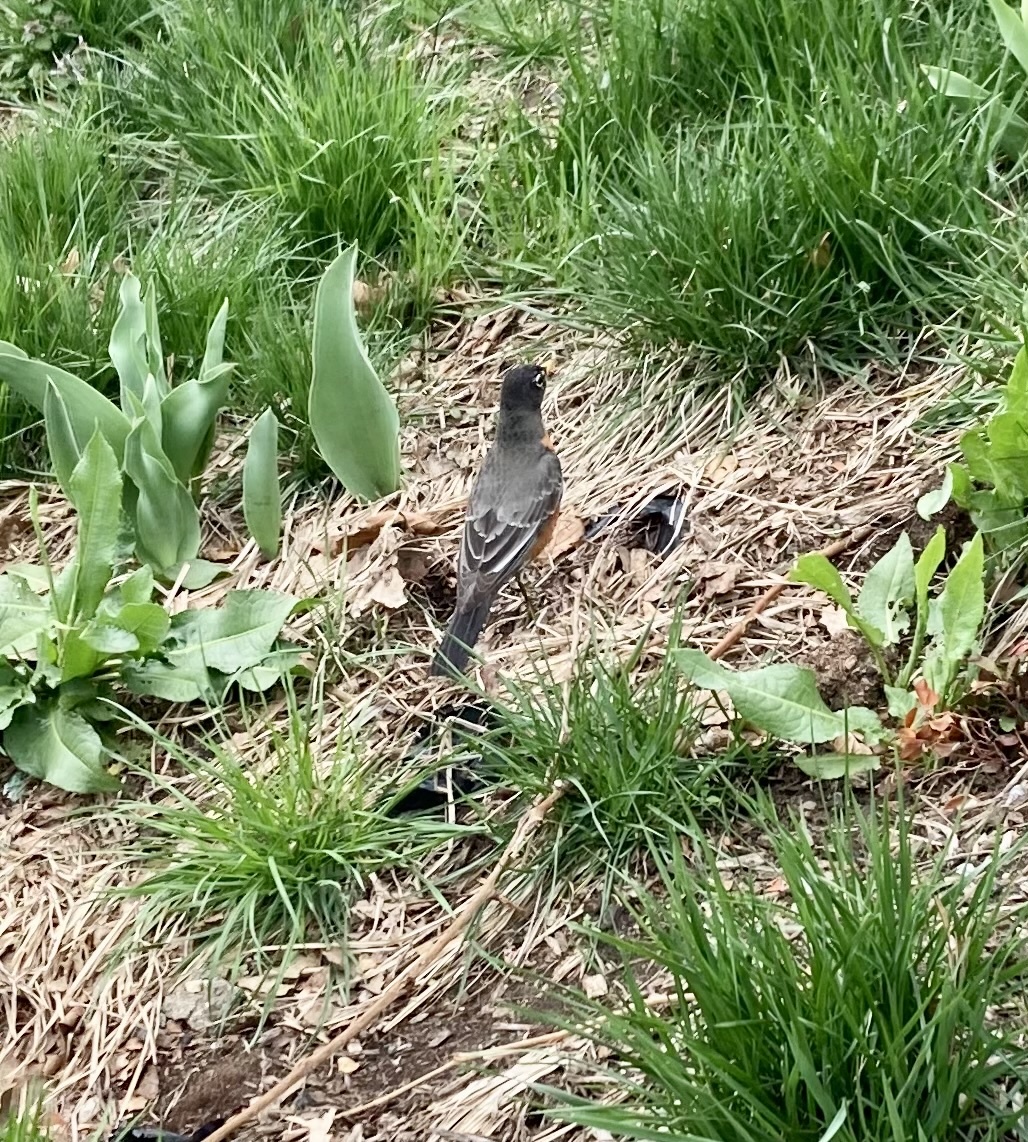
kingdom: Animalia
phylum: Chordata
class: Aves
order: Passeriformes
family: Turdidae
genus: Turdus
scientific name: Turdus migratorius
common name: American robin
